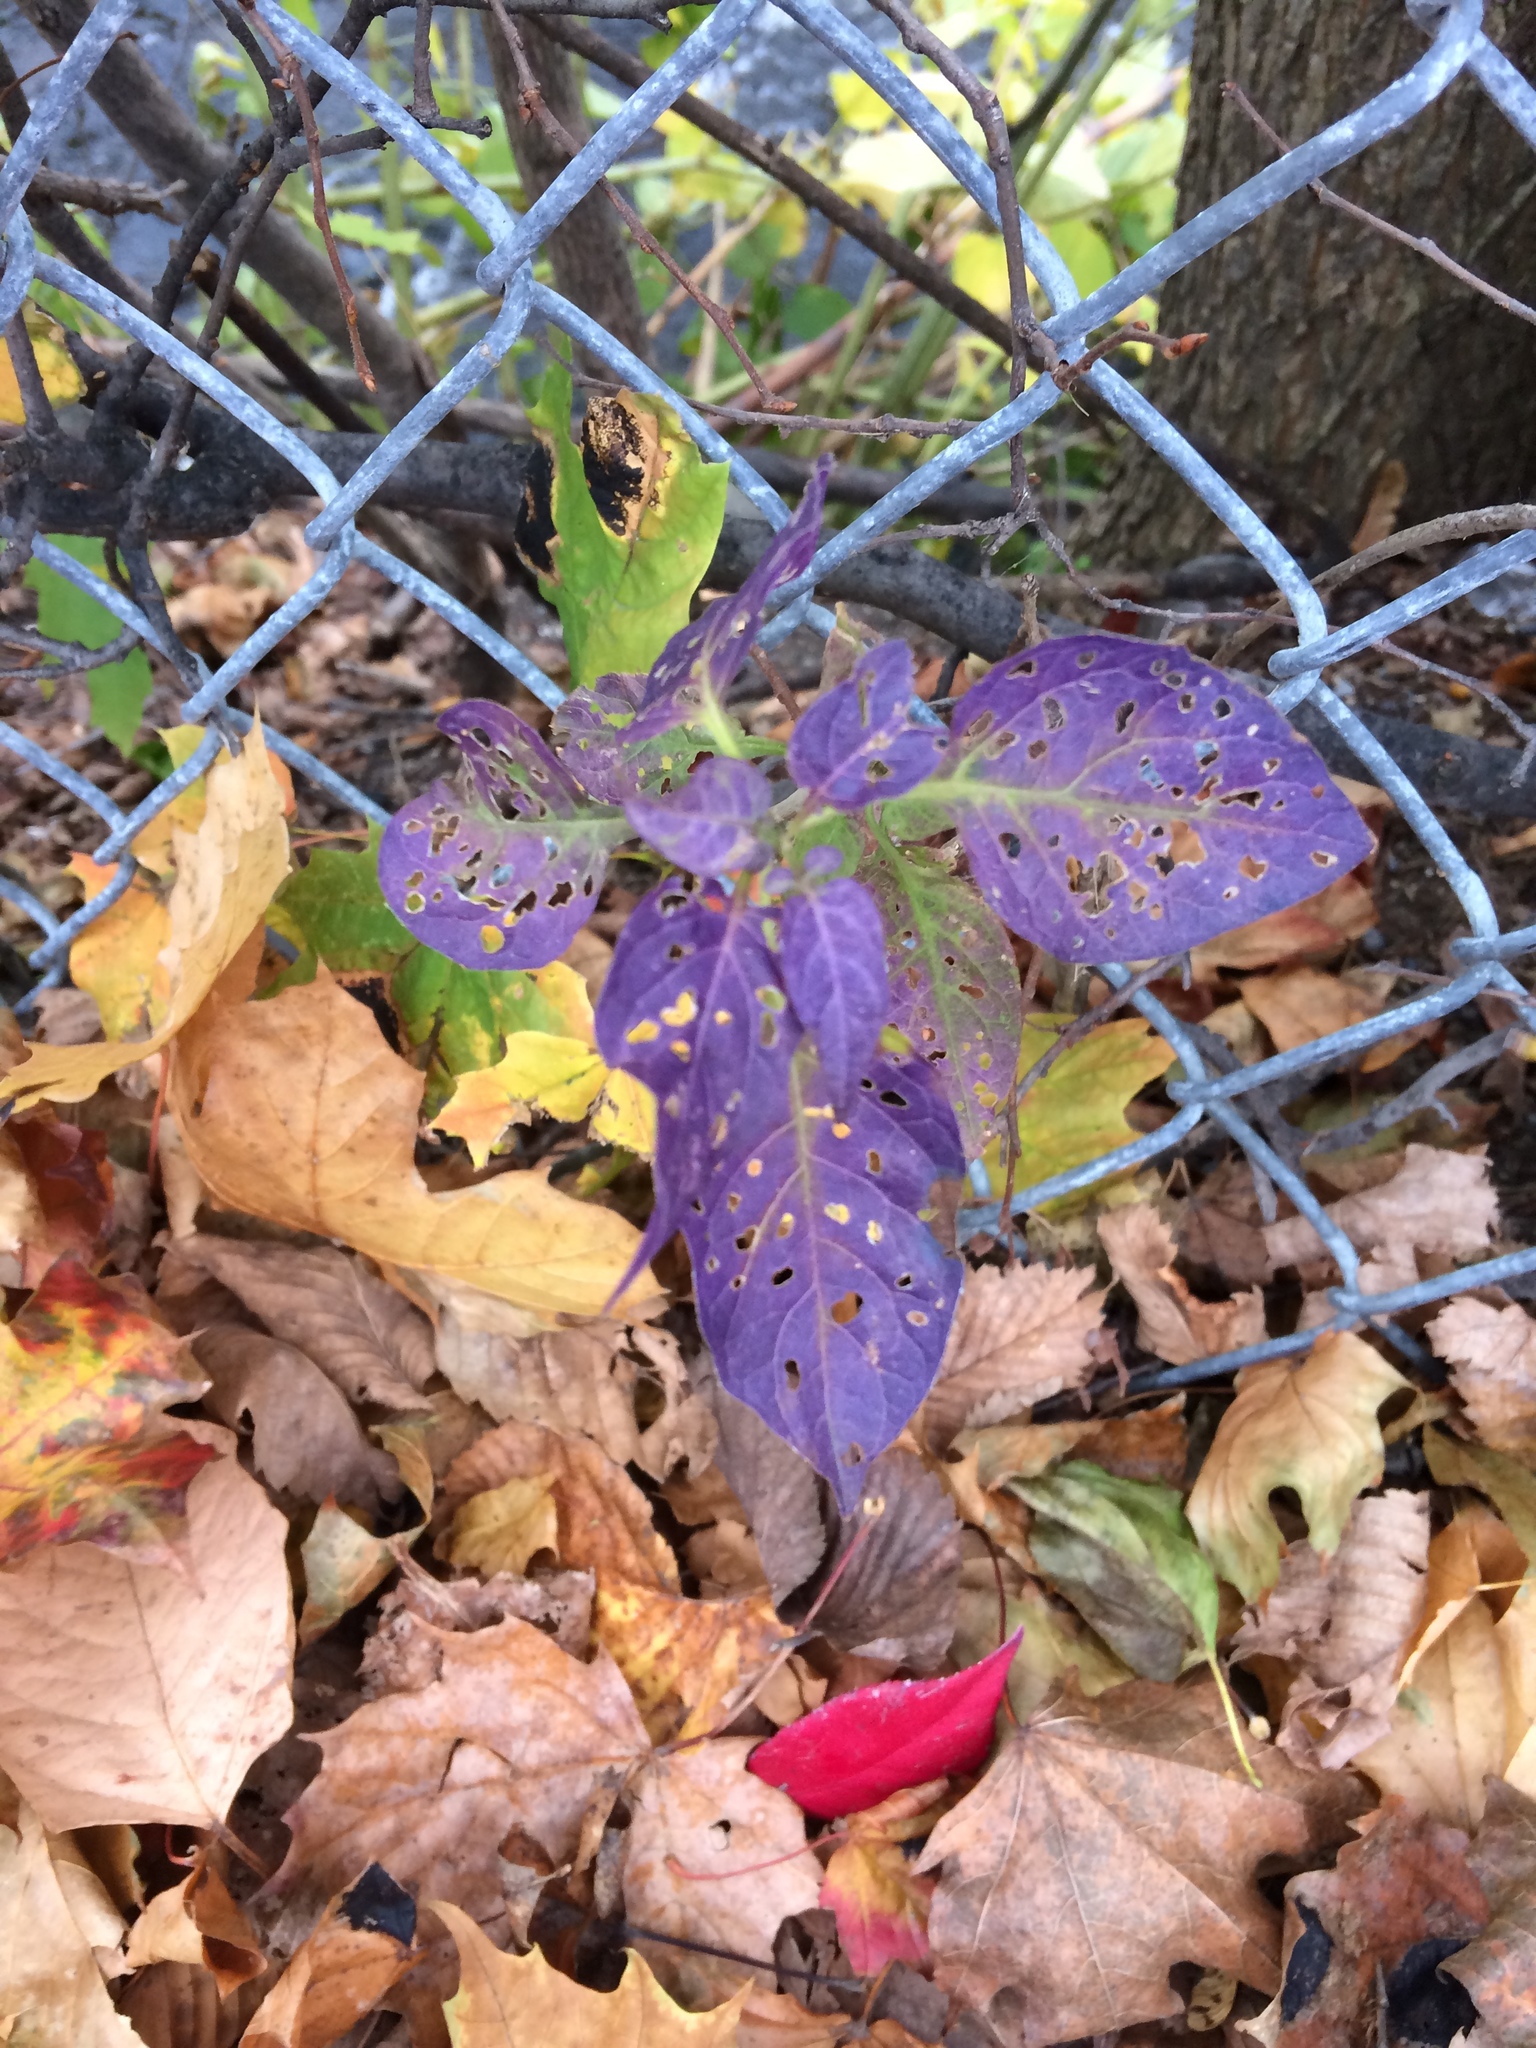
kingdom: Plantae
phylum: Tracheophyta
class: Magnoliopsida
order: Solanales
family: Solanaceae
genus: Solanum
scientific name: Solanum dulcamara
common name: Climbing nightshade
